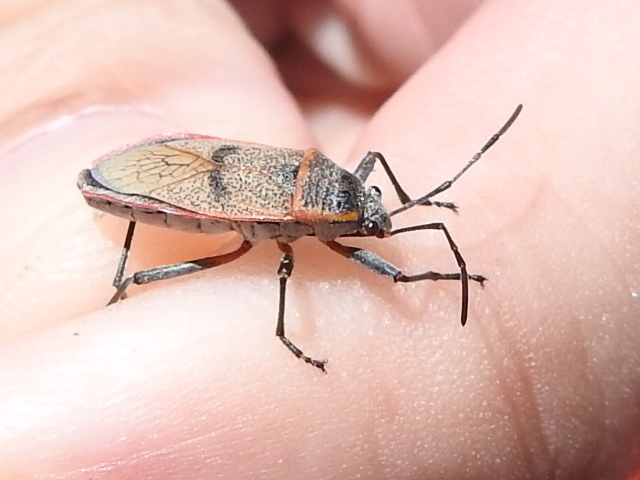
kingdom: Animalia
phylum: Arthropoda
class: Insecta
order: Hemiptera
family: Largidae
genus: Largus
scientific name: Largus maculatus
